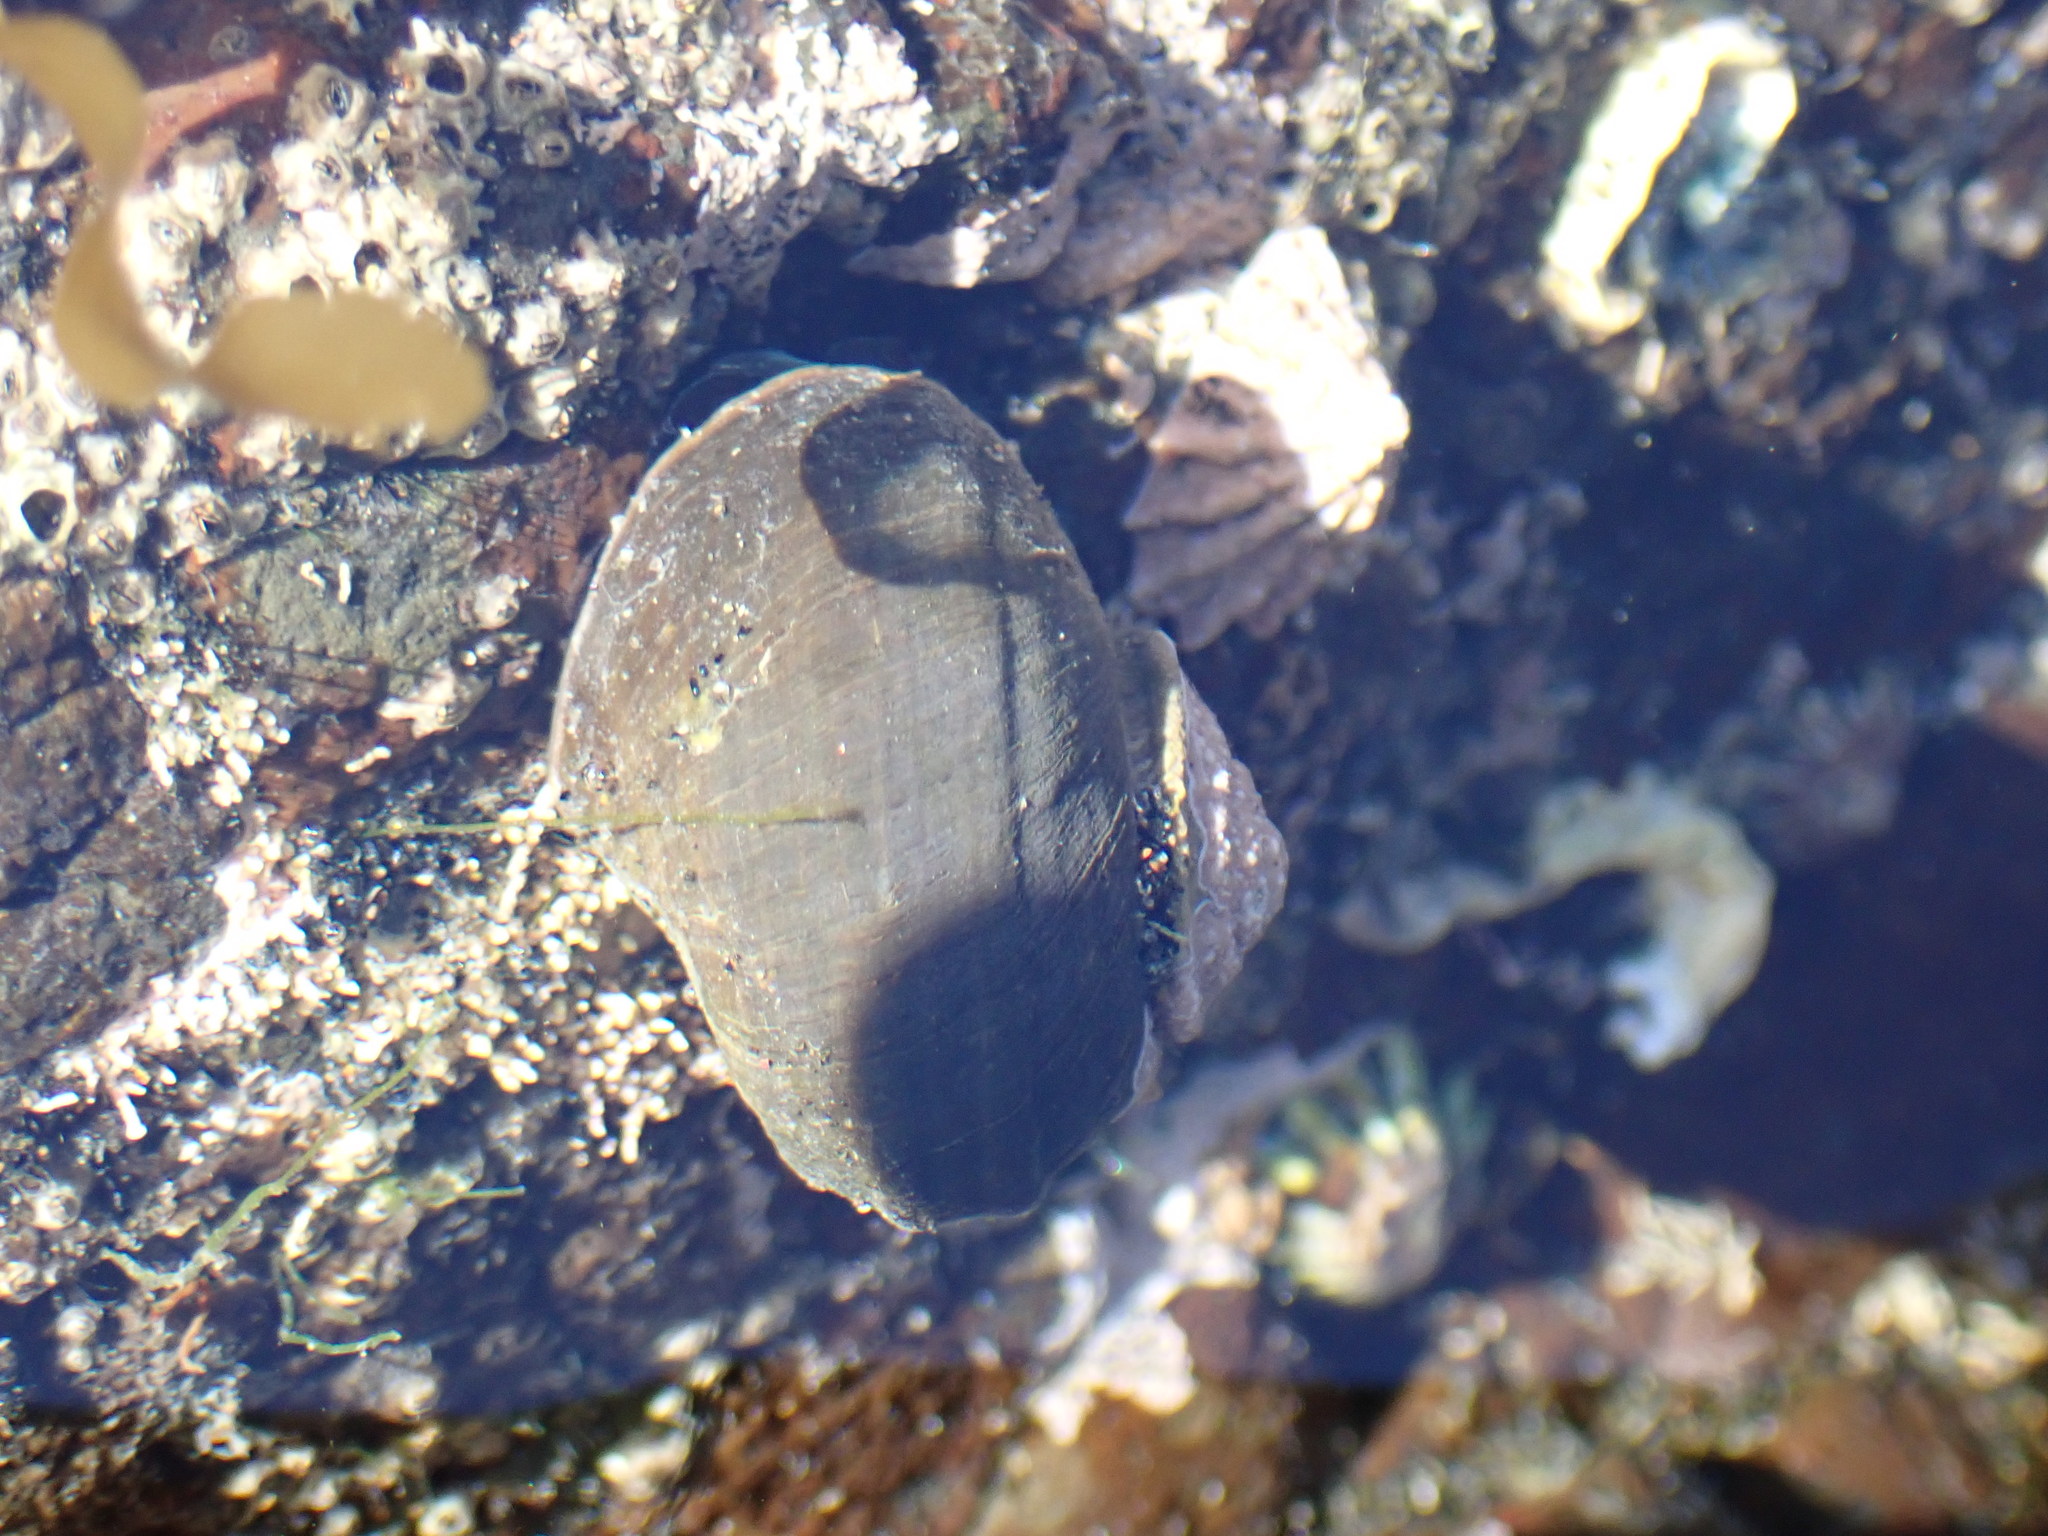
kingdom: Animalia
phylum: Mollusca
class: Gastropoda
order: Trochida
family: Turbinidae
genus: Lunella
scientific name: Lunella smaragda
